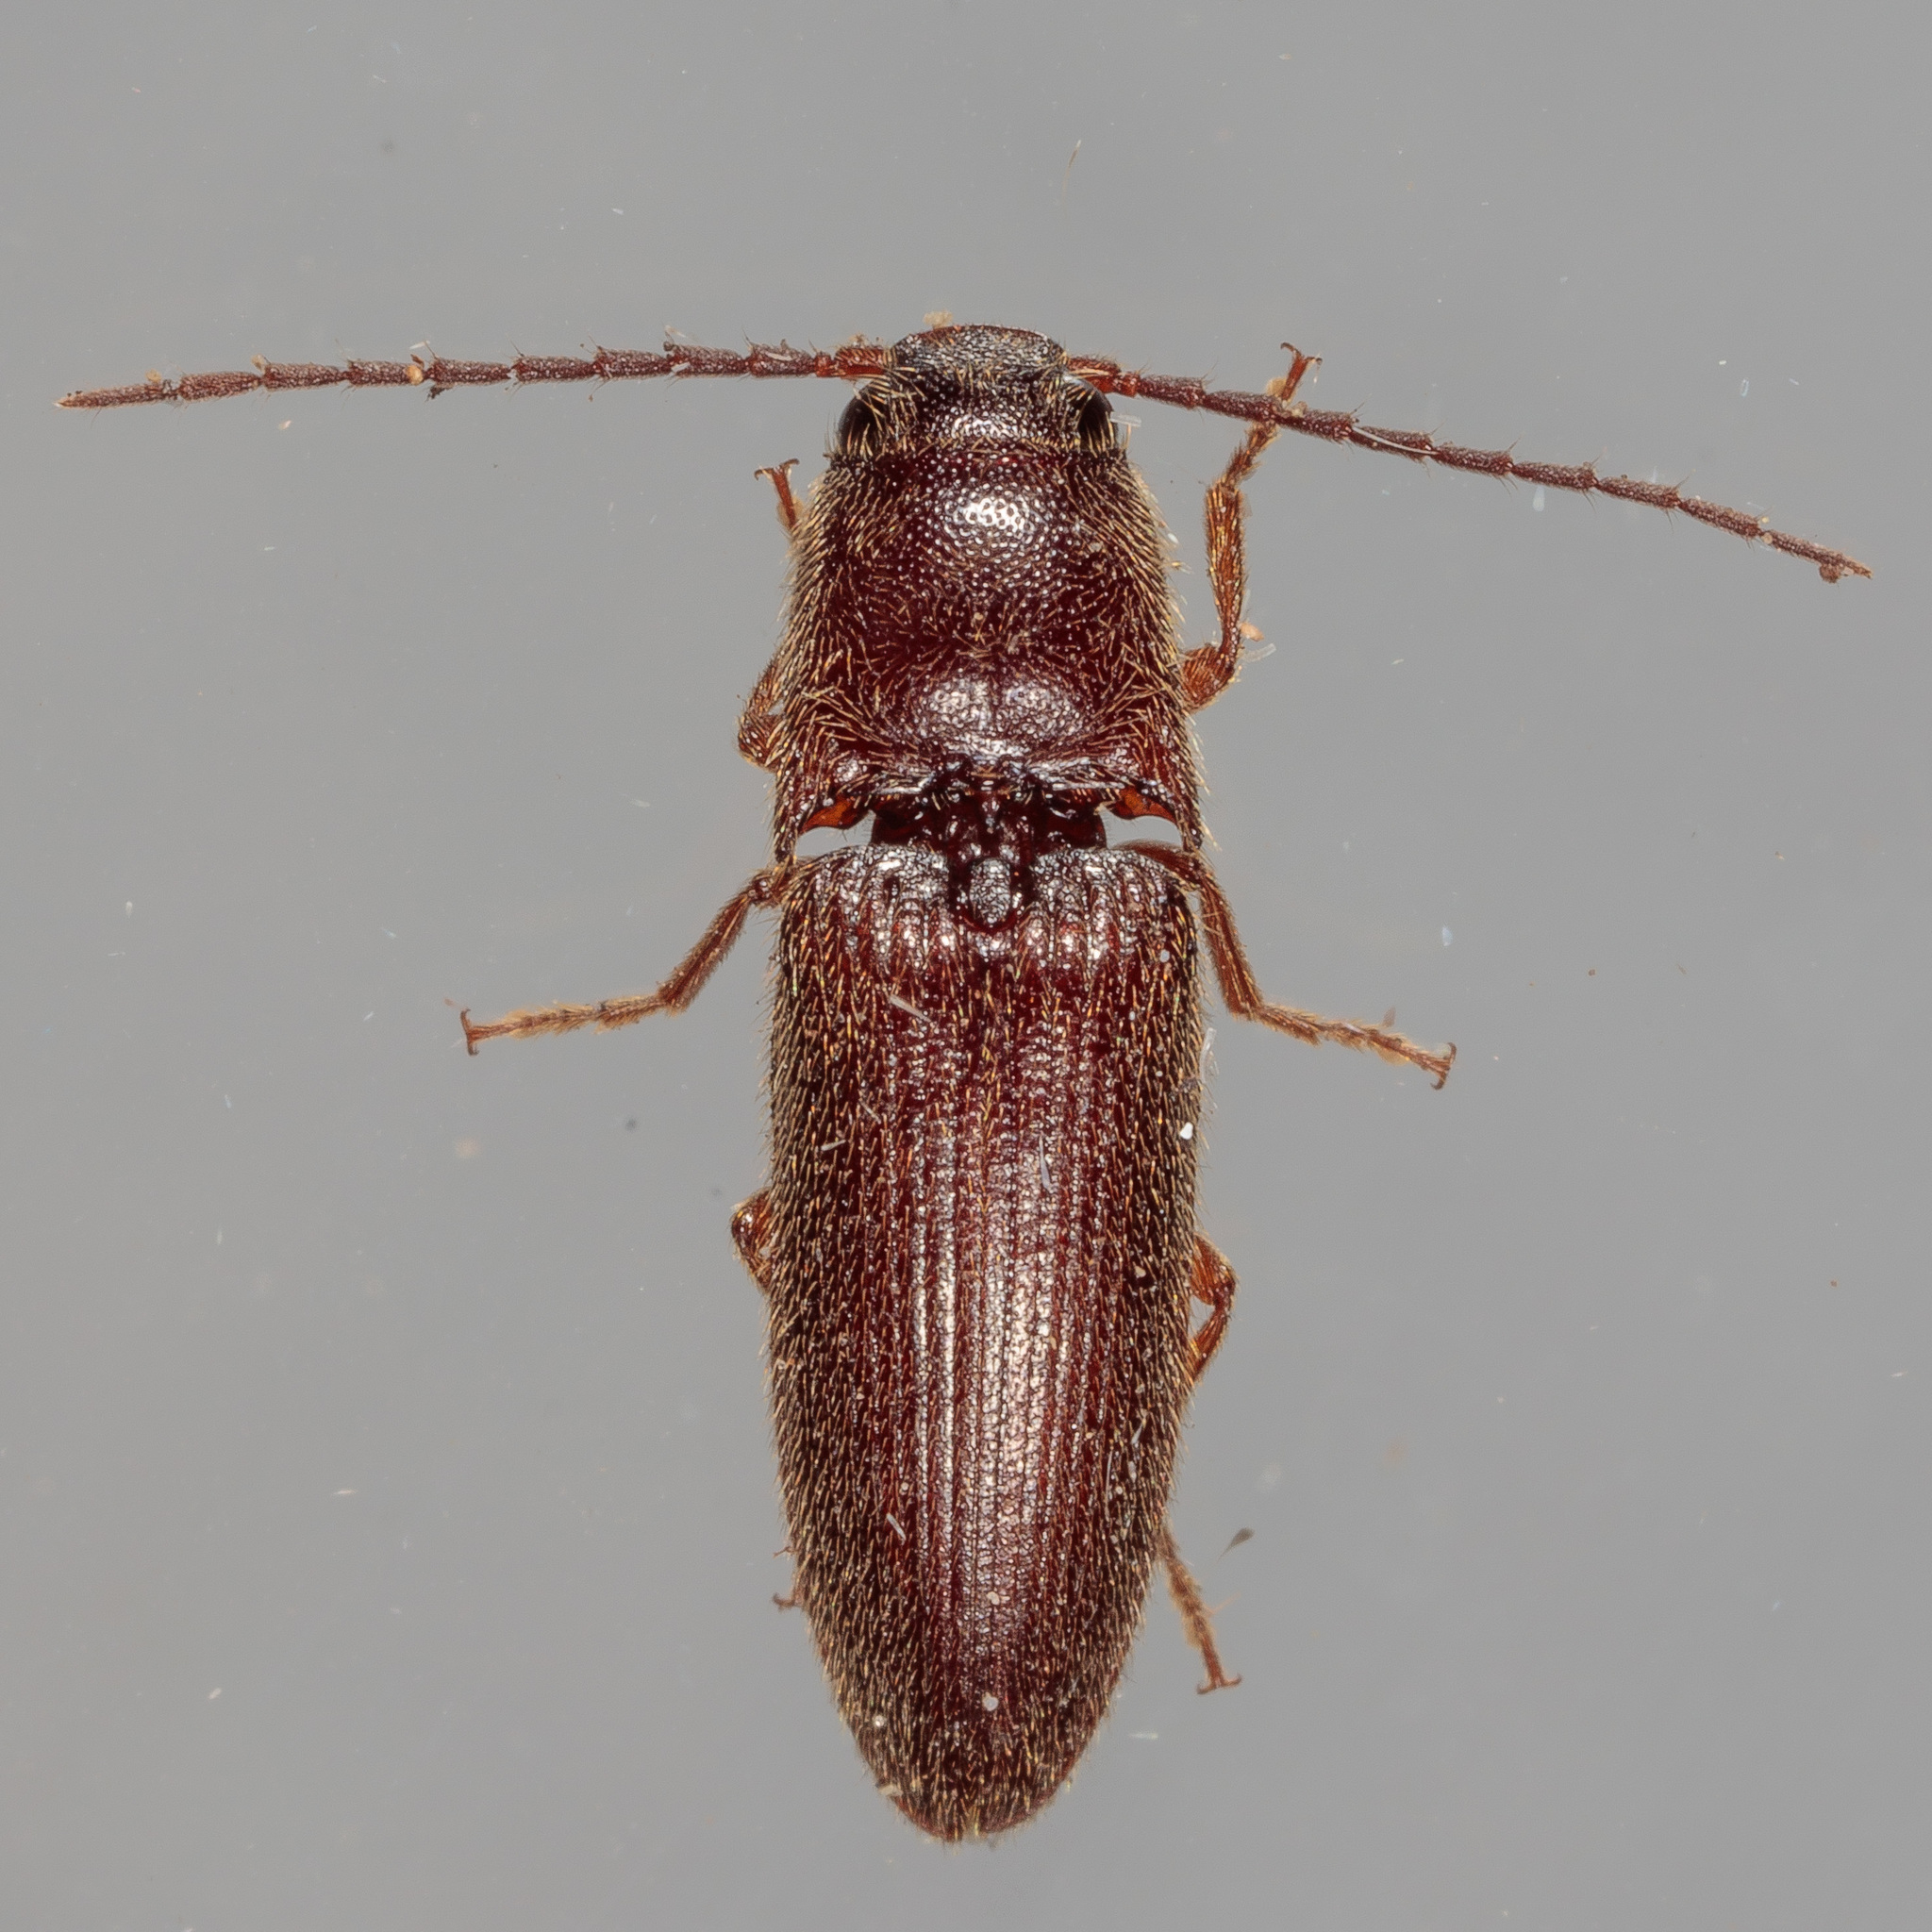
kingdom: Animalia
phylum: Arthropoda
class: Insecta
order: Coleoptera
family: Elateridae
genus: Dipropus
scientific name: Dipropus
